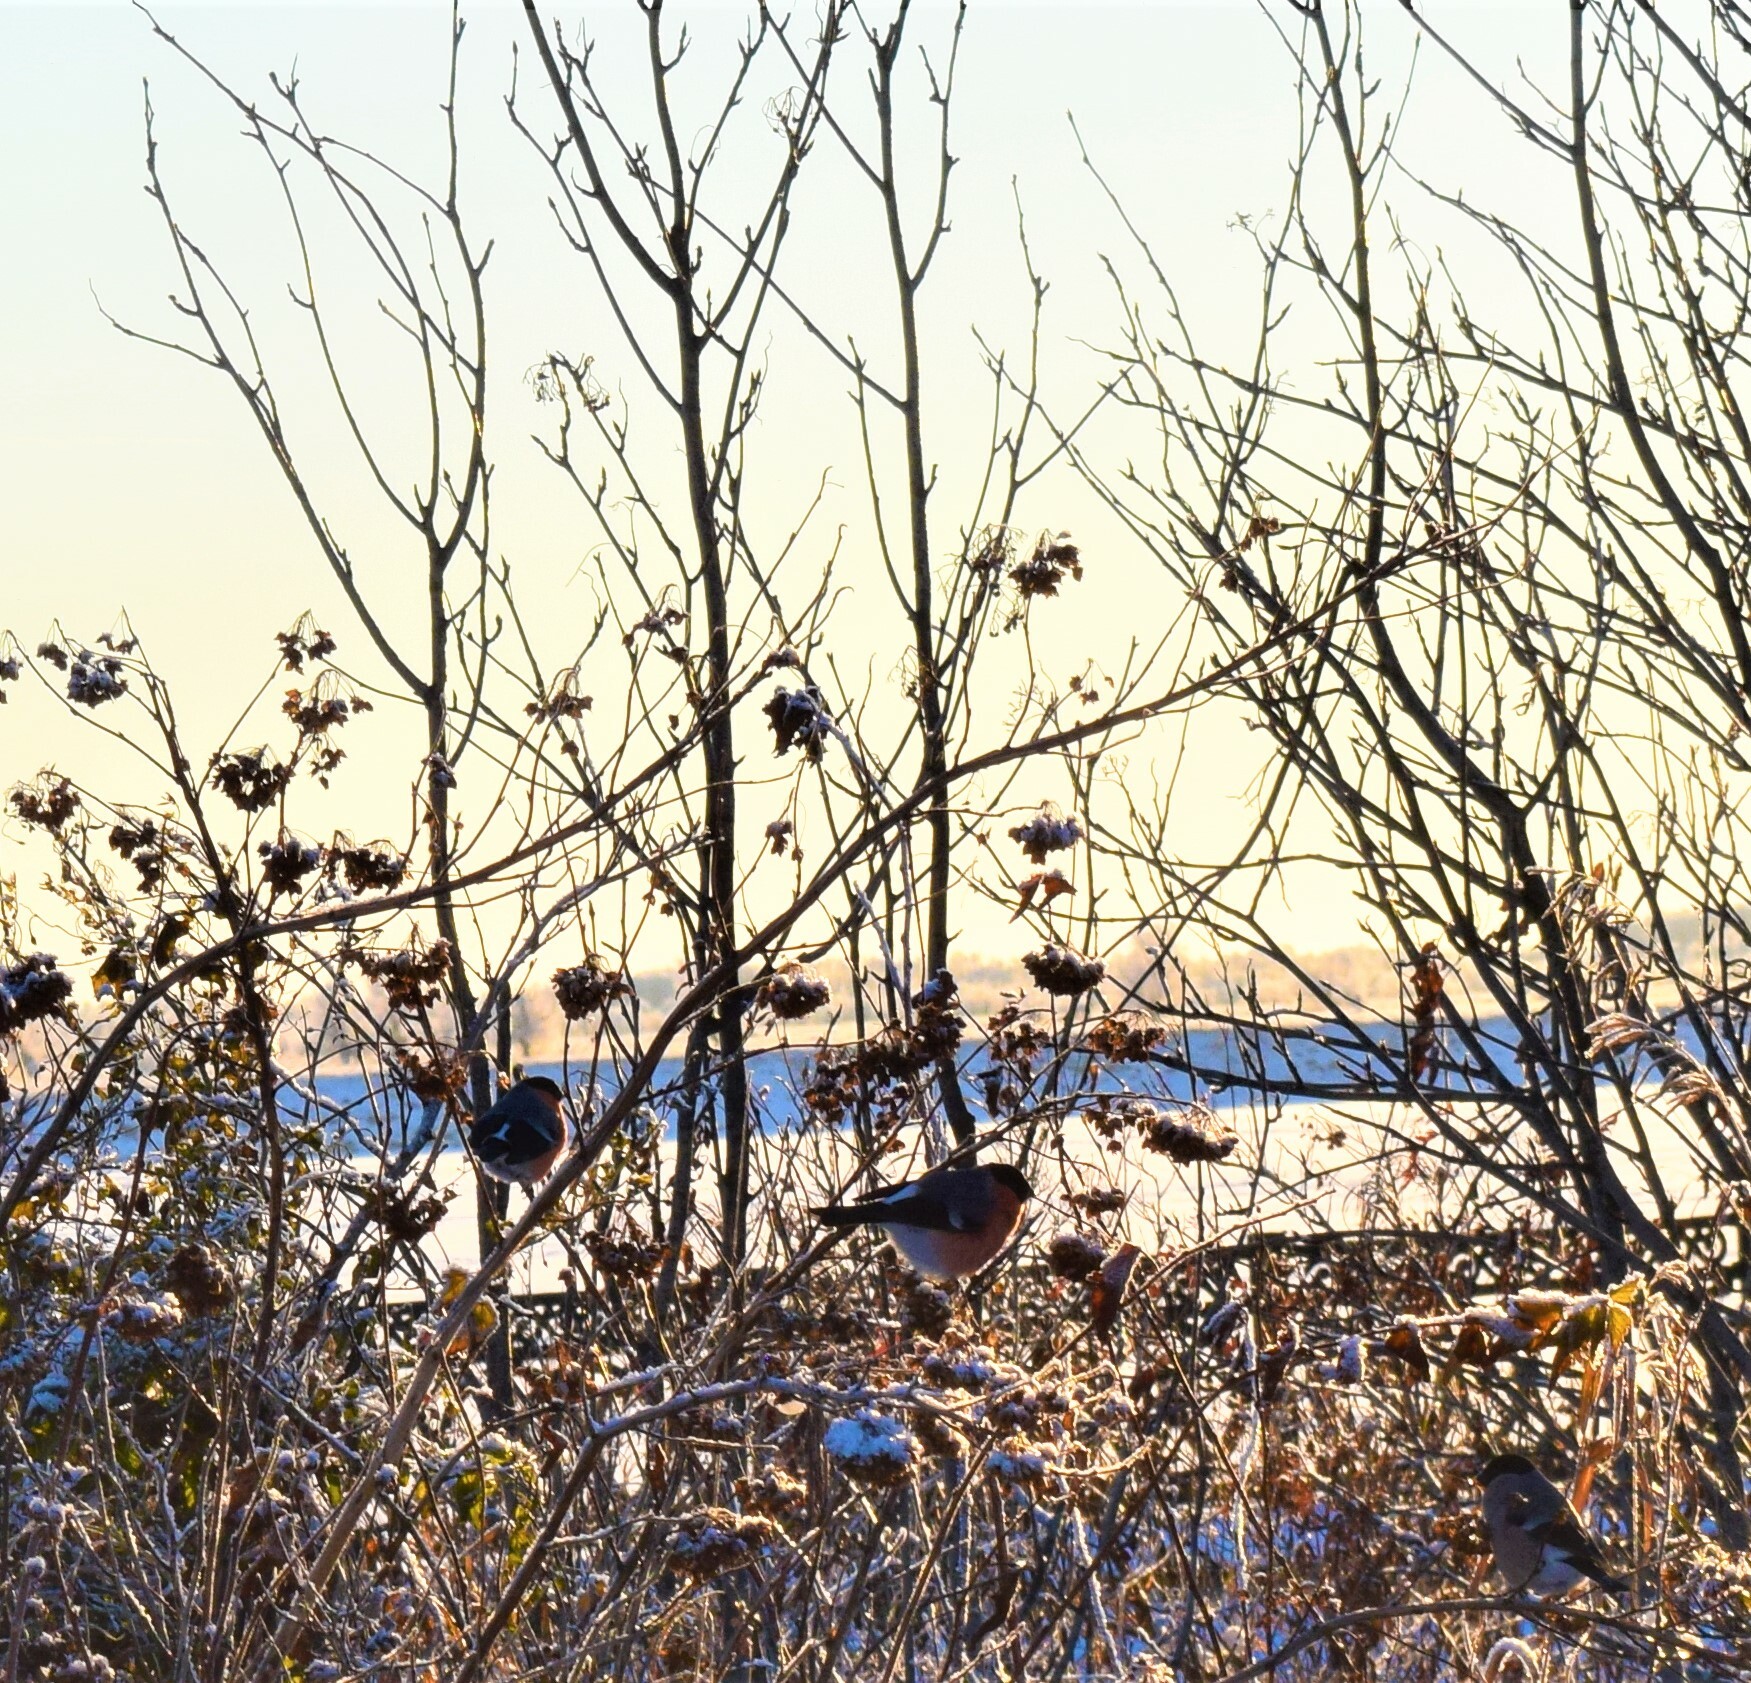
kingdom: Animalia
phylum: Chordata
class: Aves
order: Passeriformes
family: Fringillidae
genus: Pyrrhula
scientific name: Pyrrhula pyrrhula
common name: Eurasian bullfinch
